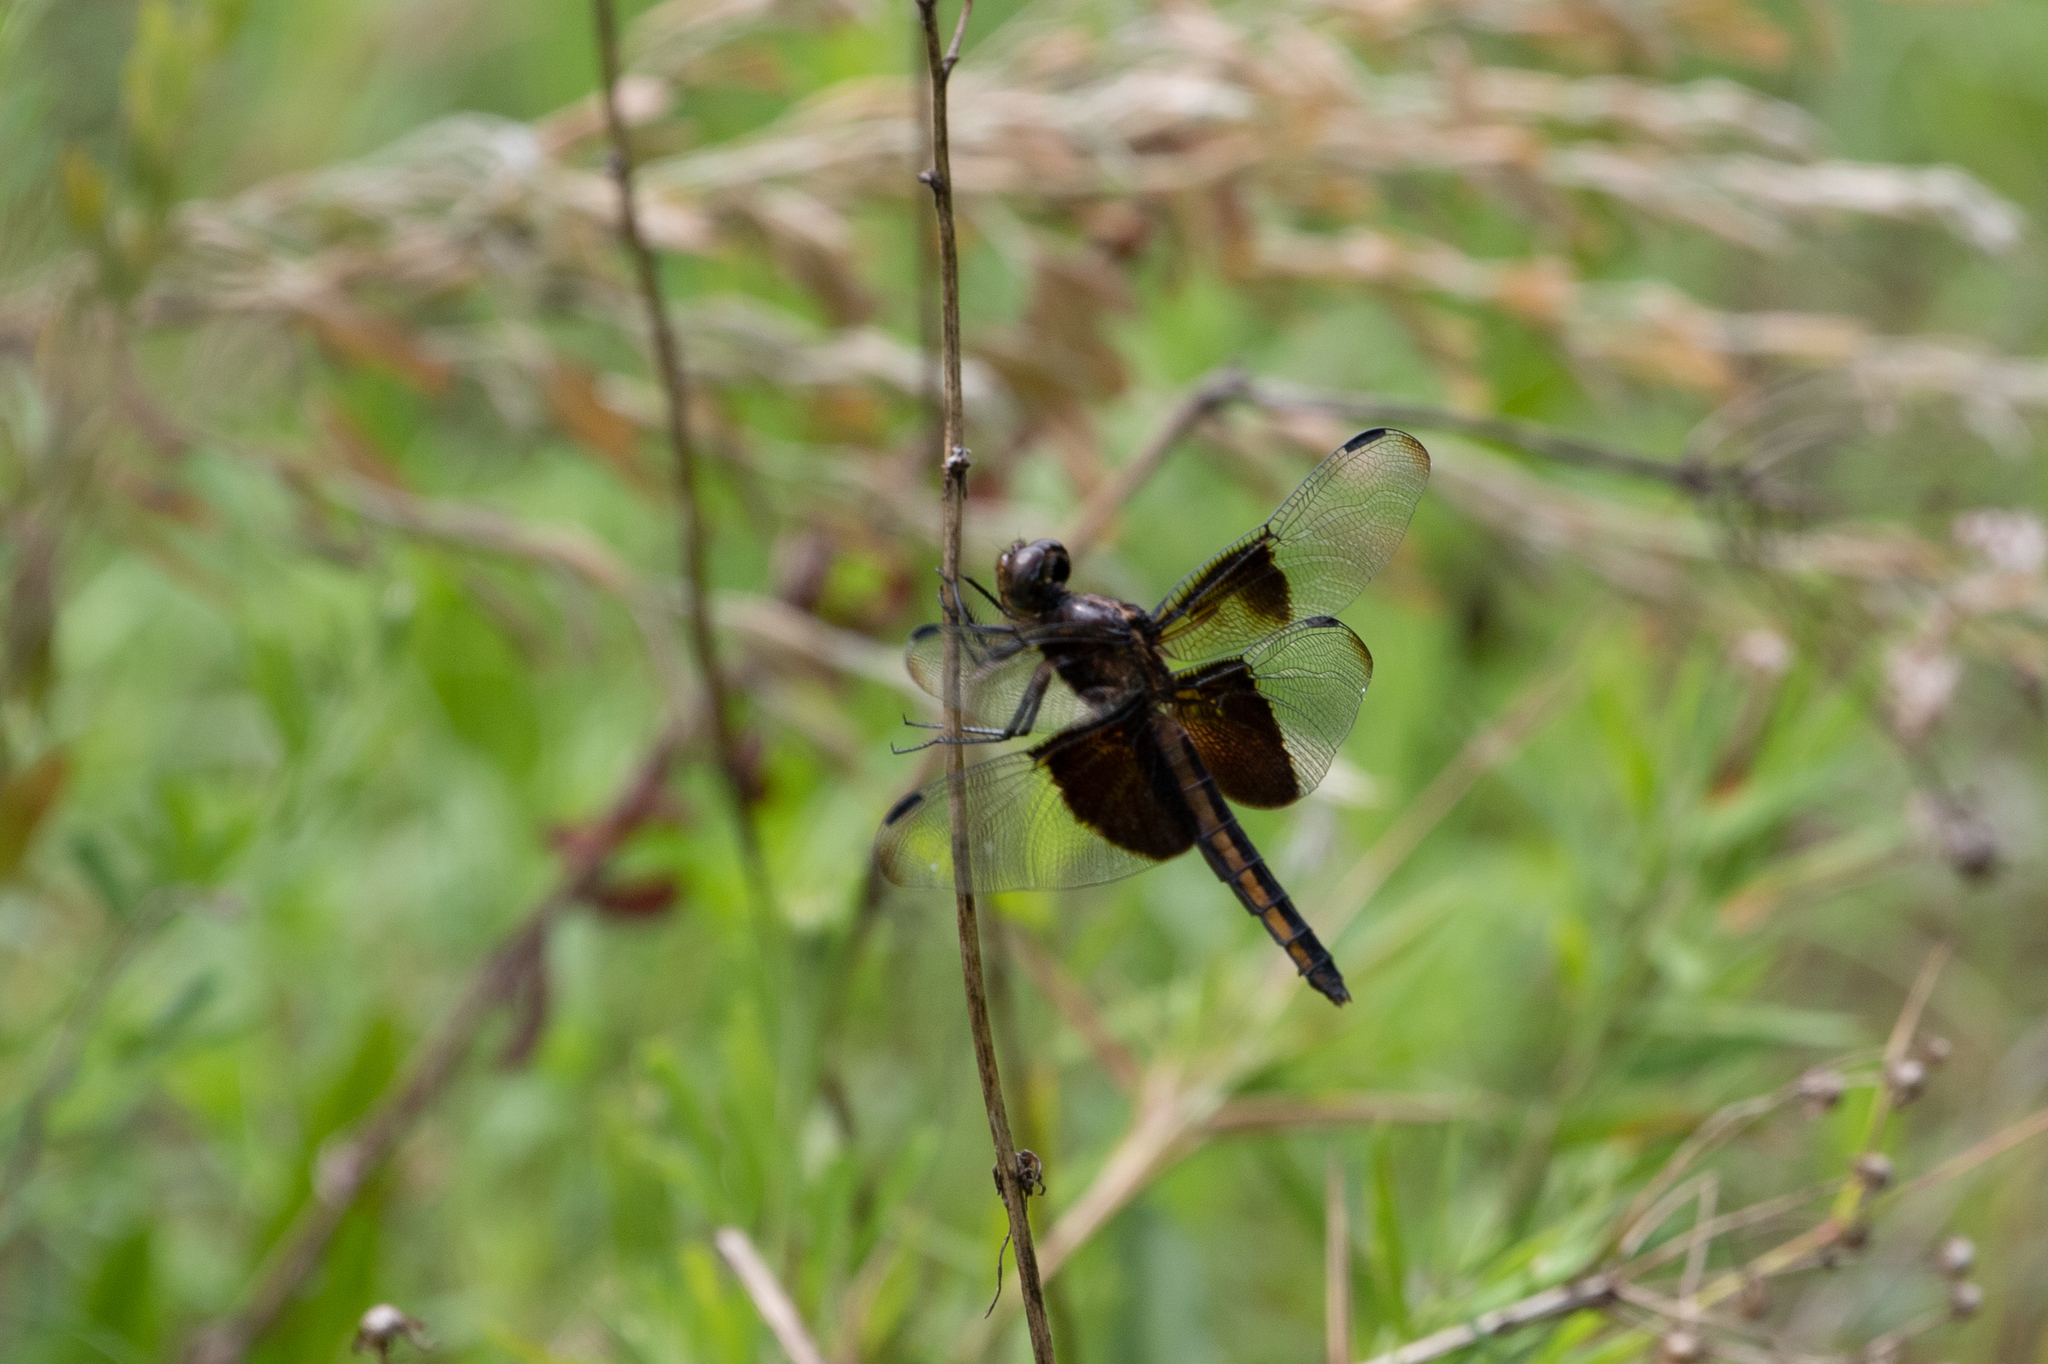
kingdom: Animalia
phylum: Arthropoda
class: Insecta
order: Odonata
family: Libellulidae
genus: Libellula
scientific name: Libellula luctuosa
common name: Widow skimmer
